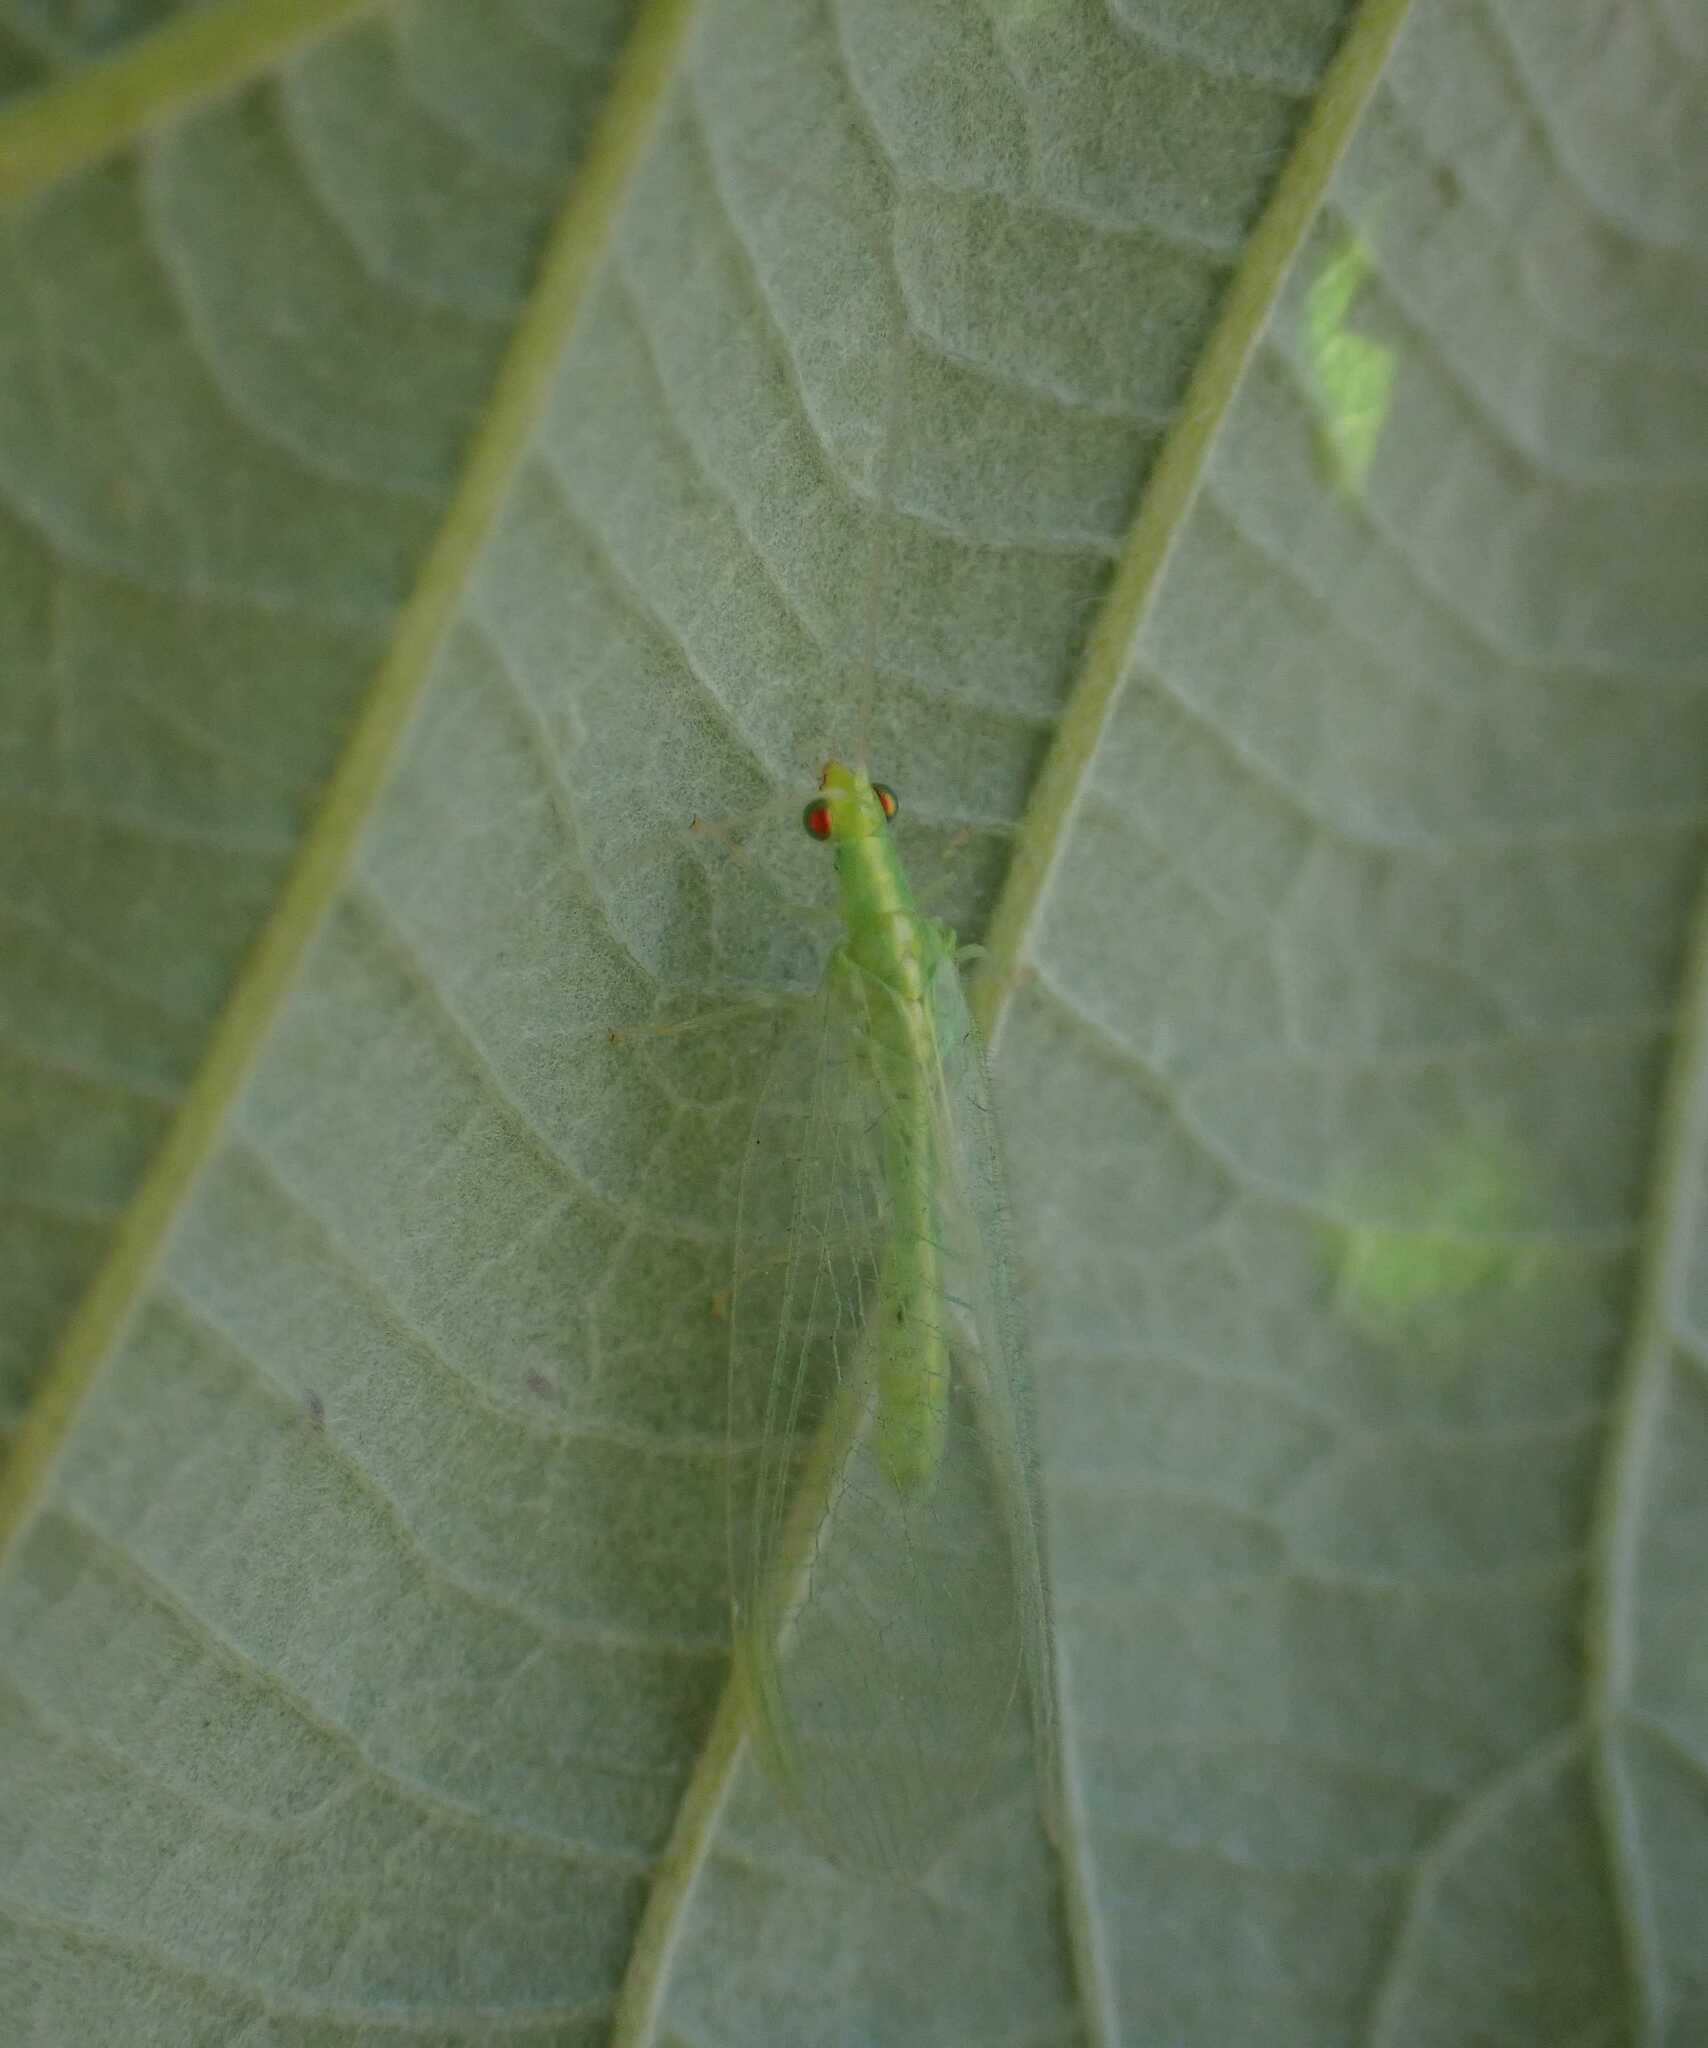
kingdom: Animalia
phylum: Arthropoda
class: Insecta
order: Neuroptera
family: Chrysopidae
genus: Chrysoperla
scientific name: Chrysoperla
